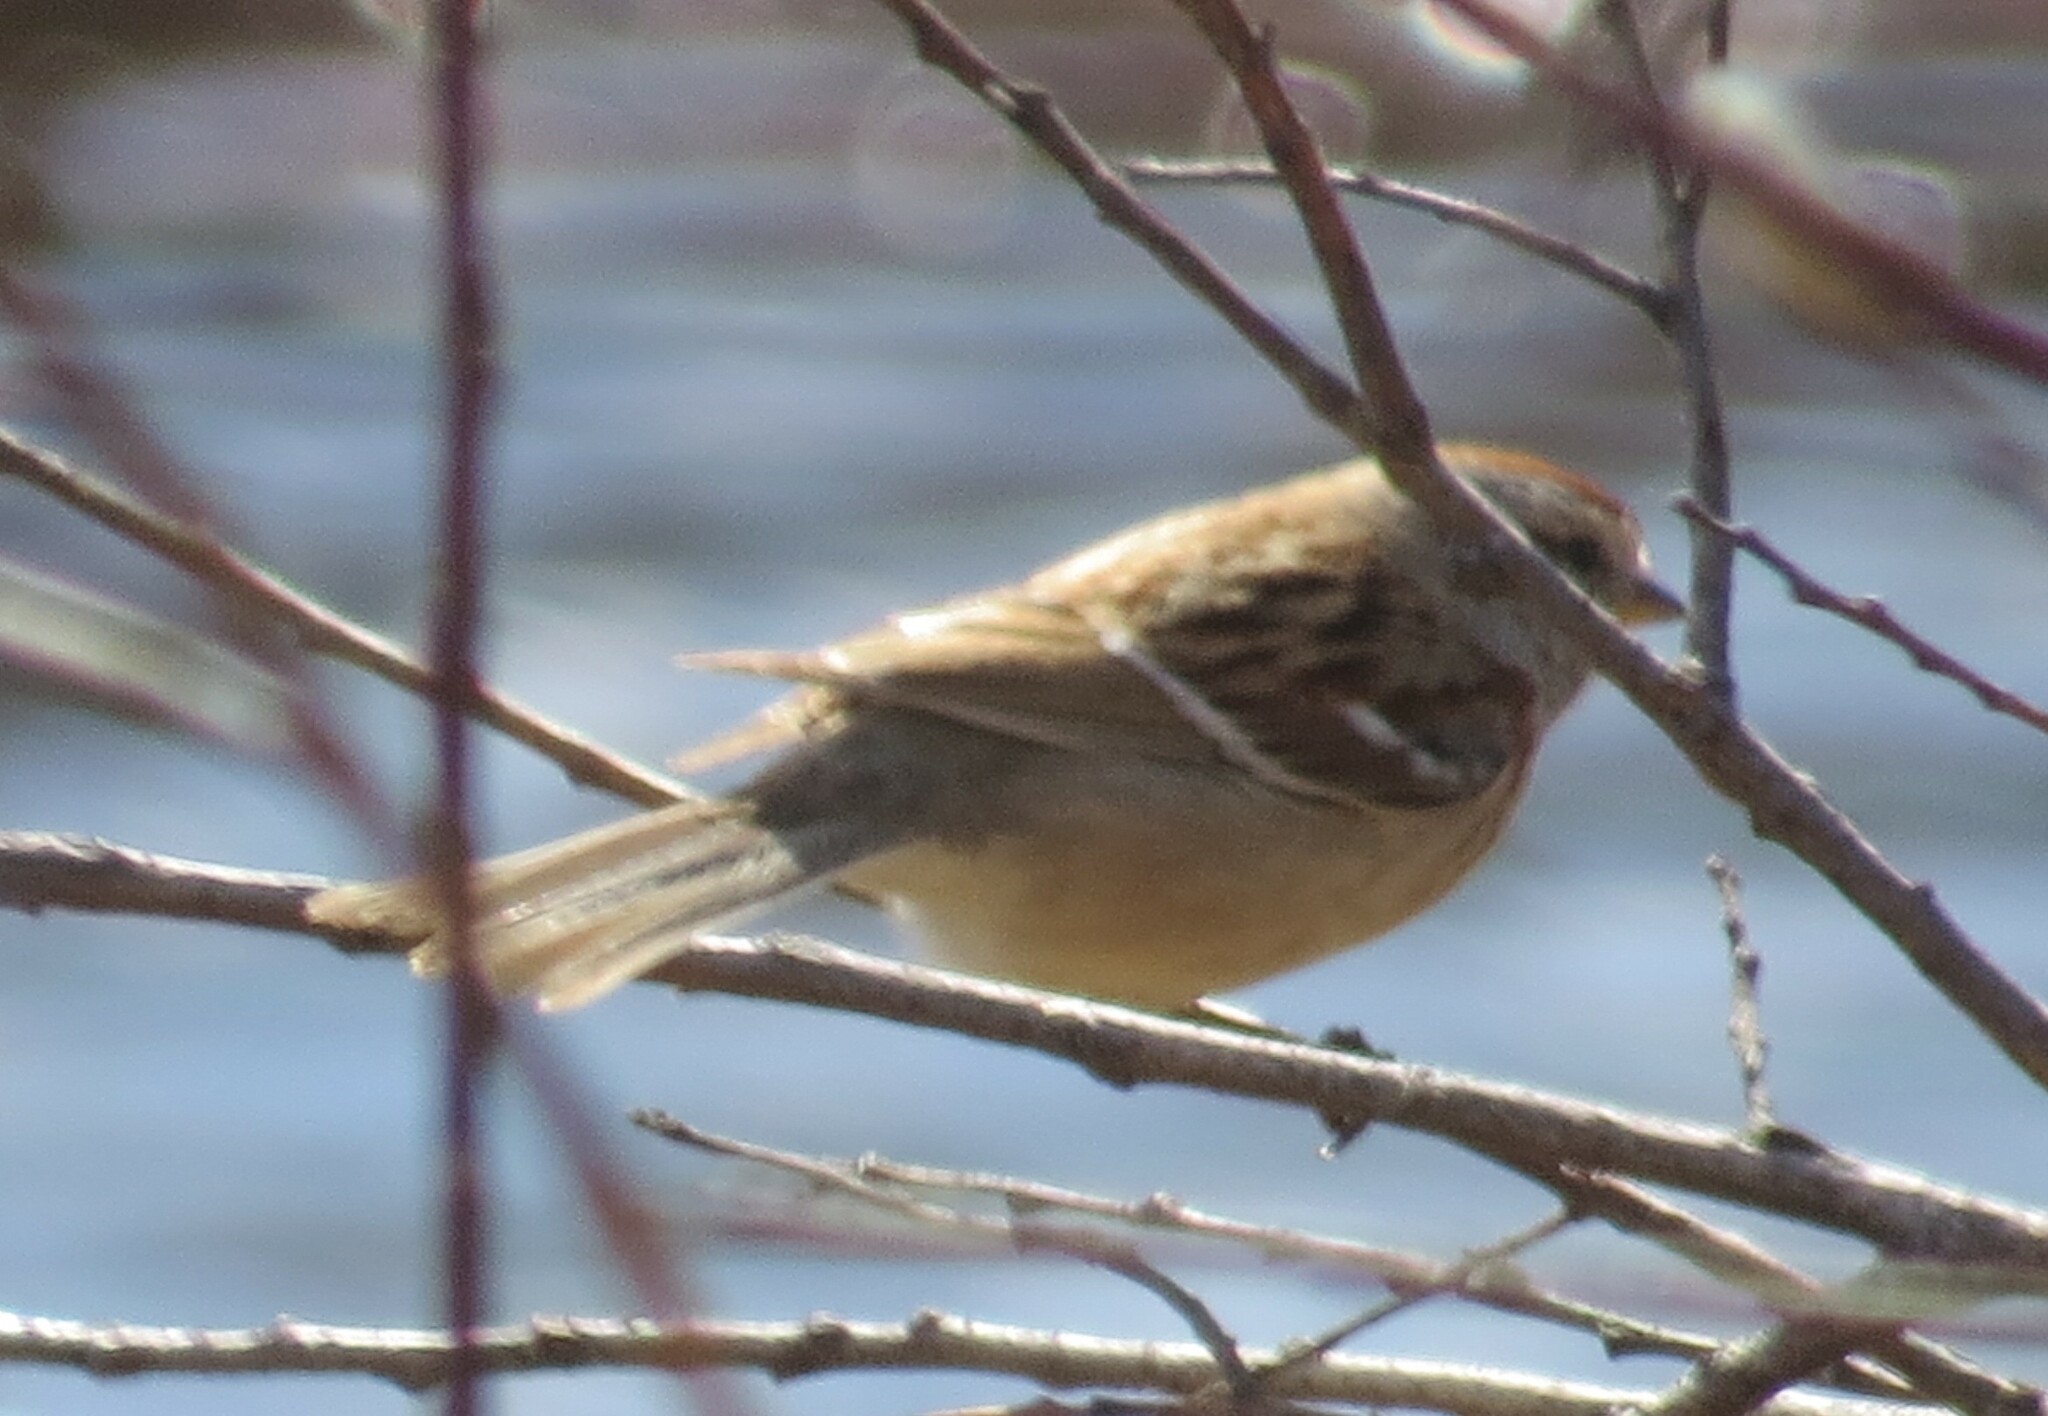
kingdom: Animalia
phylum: Chordata
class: Aves
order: Passeriformes
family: Passerellidae
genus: Spizelloides
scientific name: Spizelloides arborea
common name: American tree sparrow
